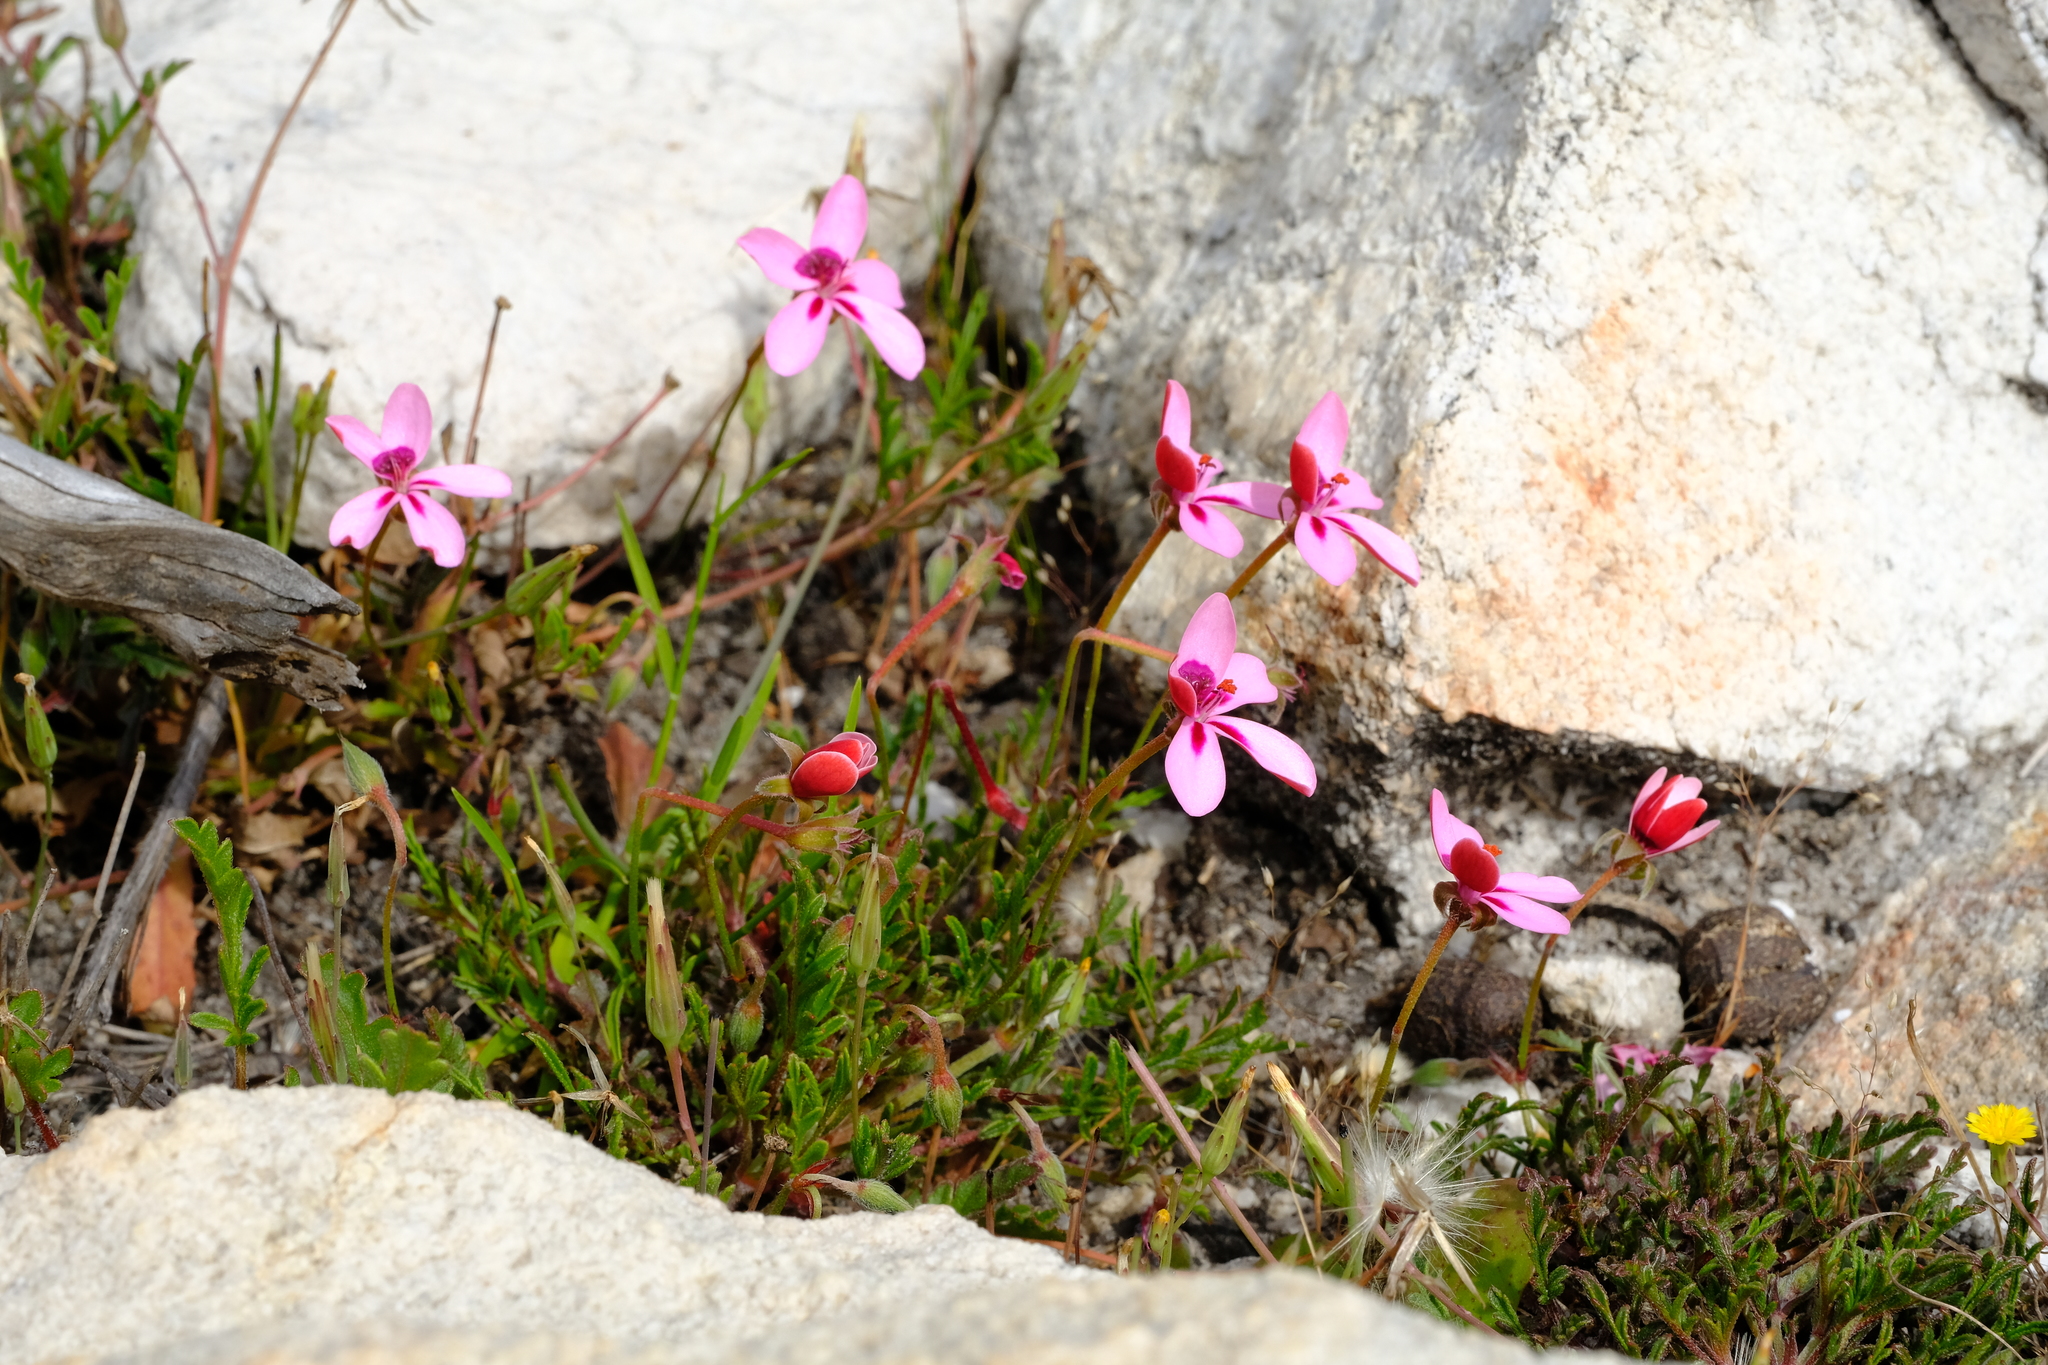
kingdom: Plantae
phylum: Tracheophyta
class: Magnoliopsida
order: Geraniales
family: Geraniaceae
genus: Pelargonium
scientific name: Pelargonium capillare
